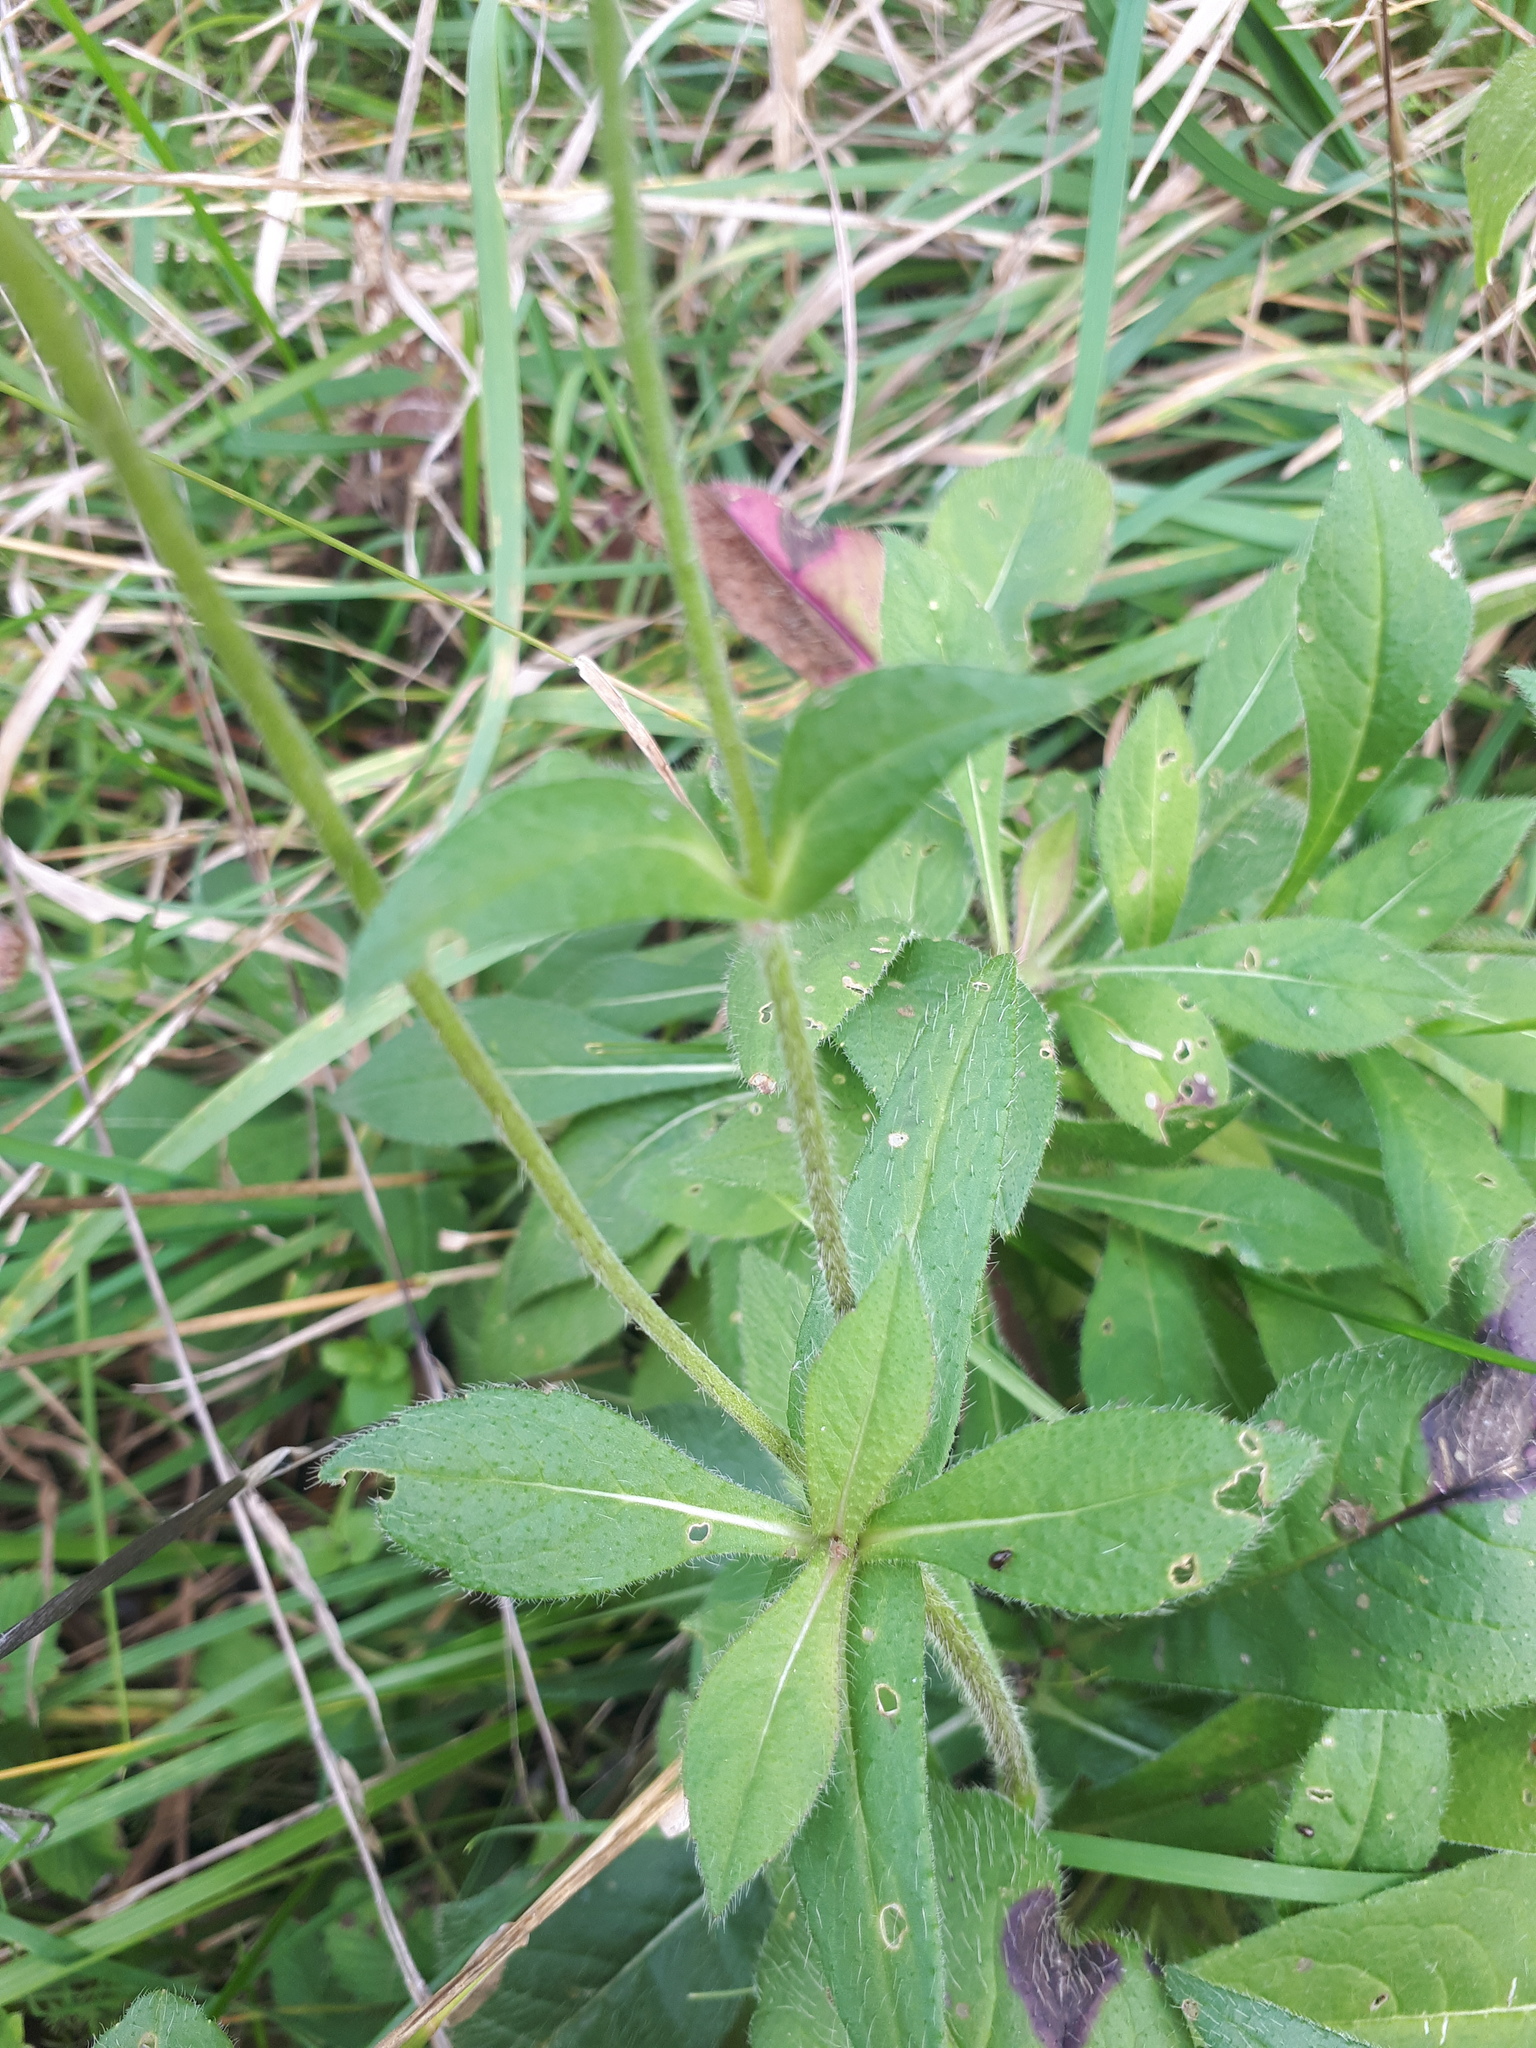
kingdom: Plantae
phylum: Tracheophyta
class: Magnoliopsida
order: Dipsacales
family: Caprifoliaceae
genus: Knautia
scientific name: Knautia arvensis
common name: Field scabiosa
